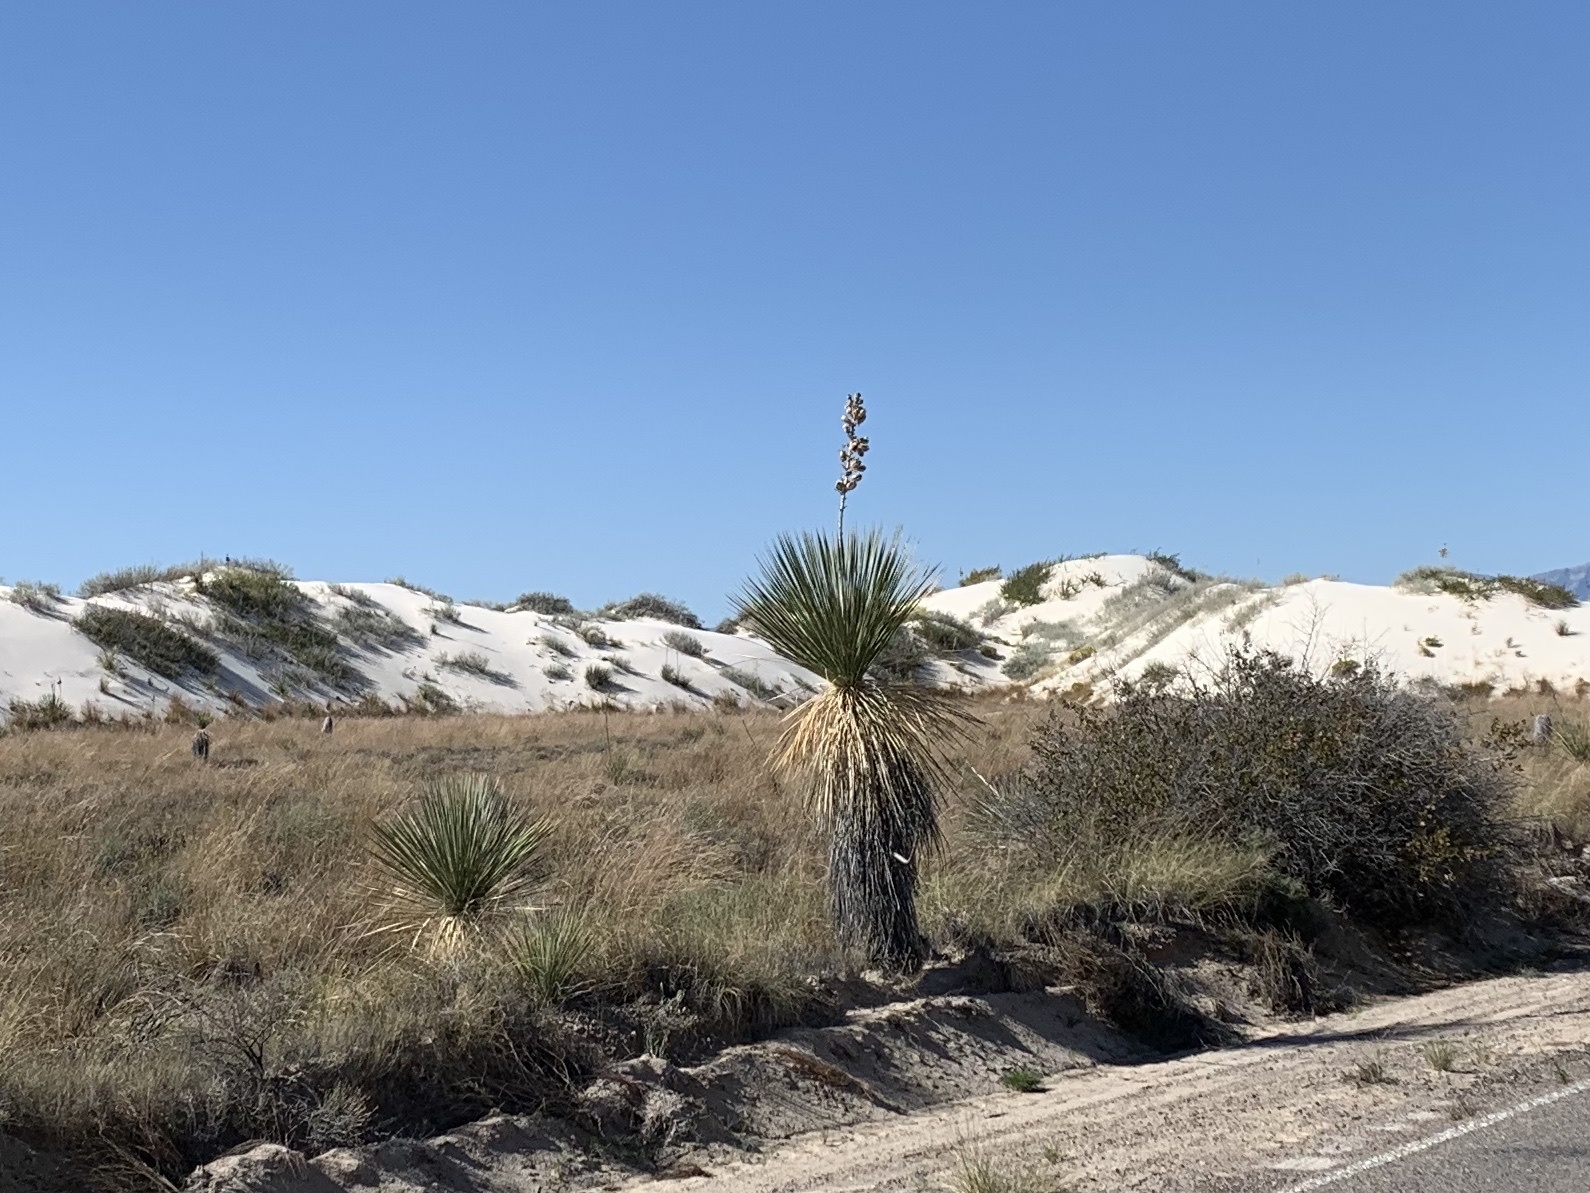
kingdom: Plantae
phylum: Tracheophyta
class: Liliopsida
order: Asparagales
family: Asparagaceae
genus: Yucca
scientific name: Yucca elata
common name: Palmella
